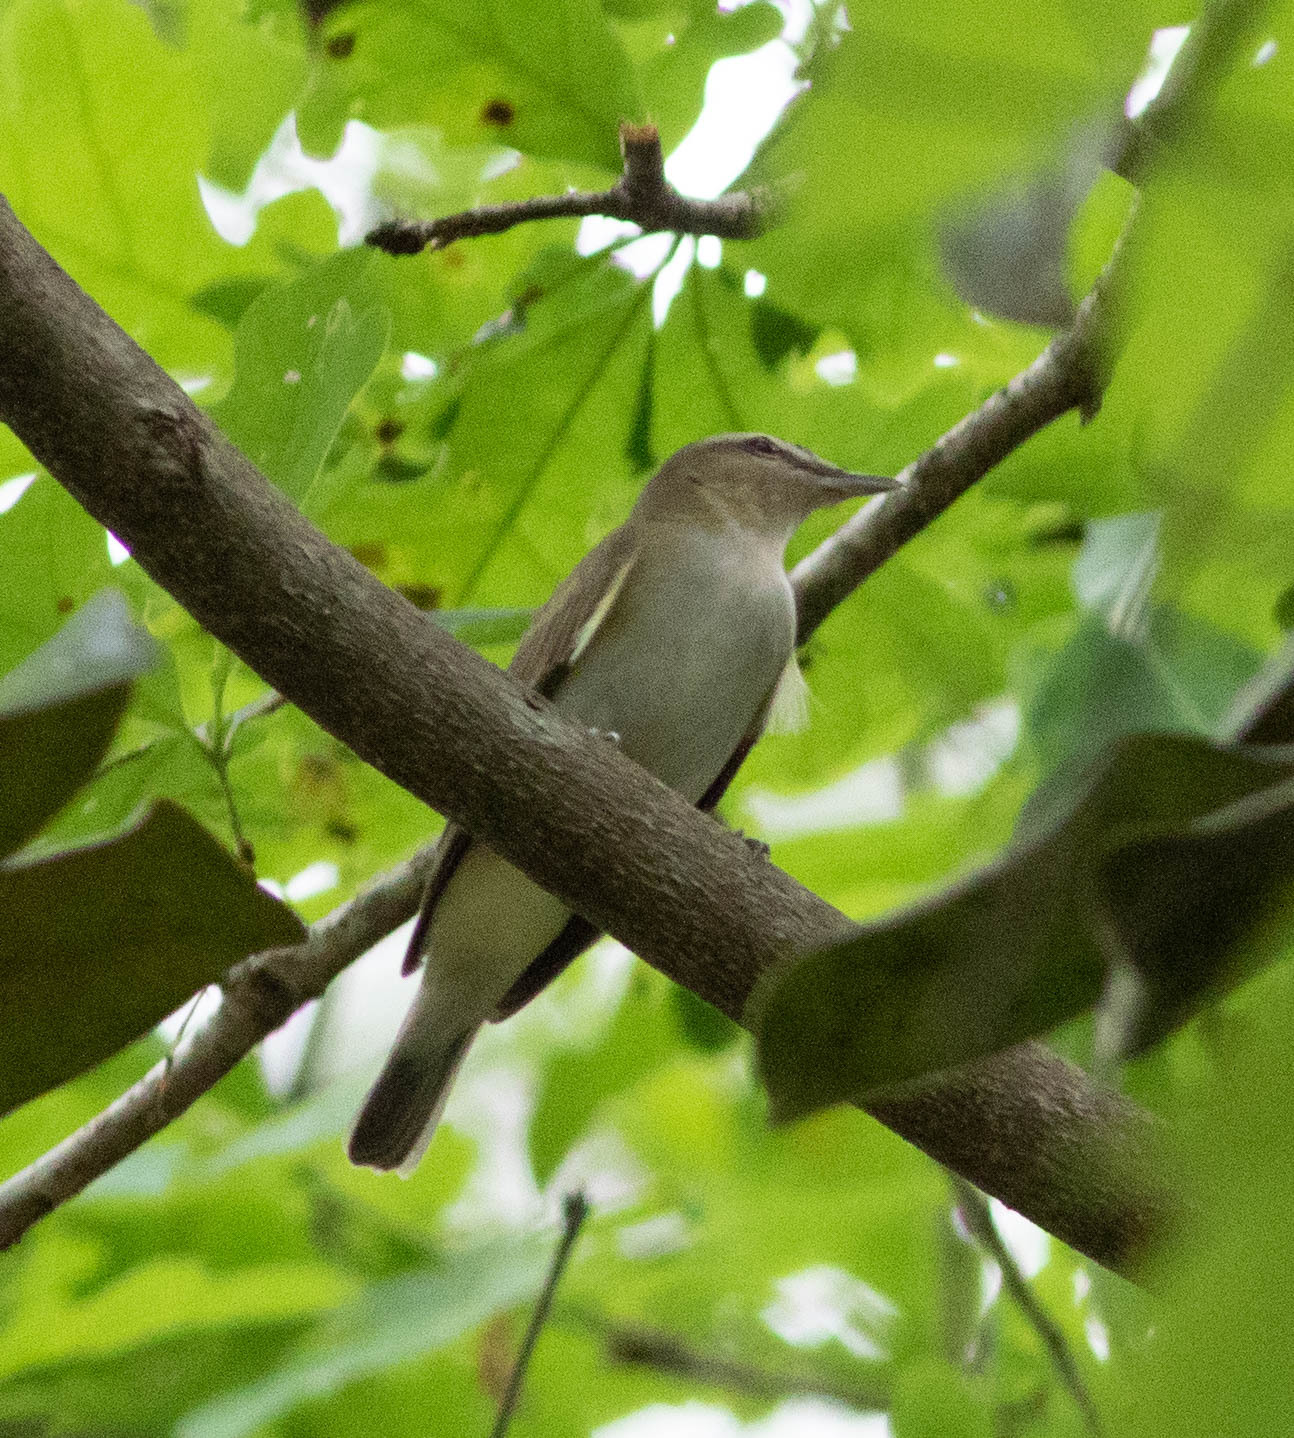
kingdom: Animalia
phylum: Chordata
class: Aves
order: Passeriformes
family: Vireonidae
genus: Vireo
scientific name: Vireo olivaceus
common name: Red-eyed vireo
